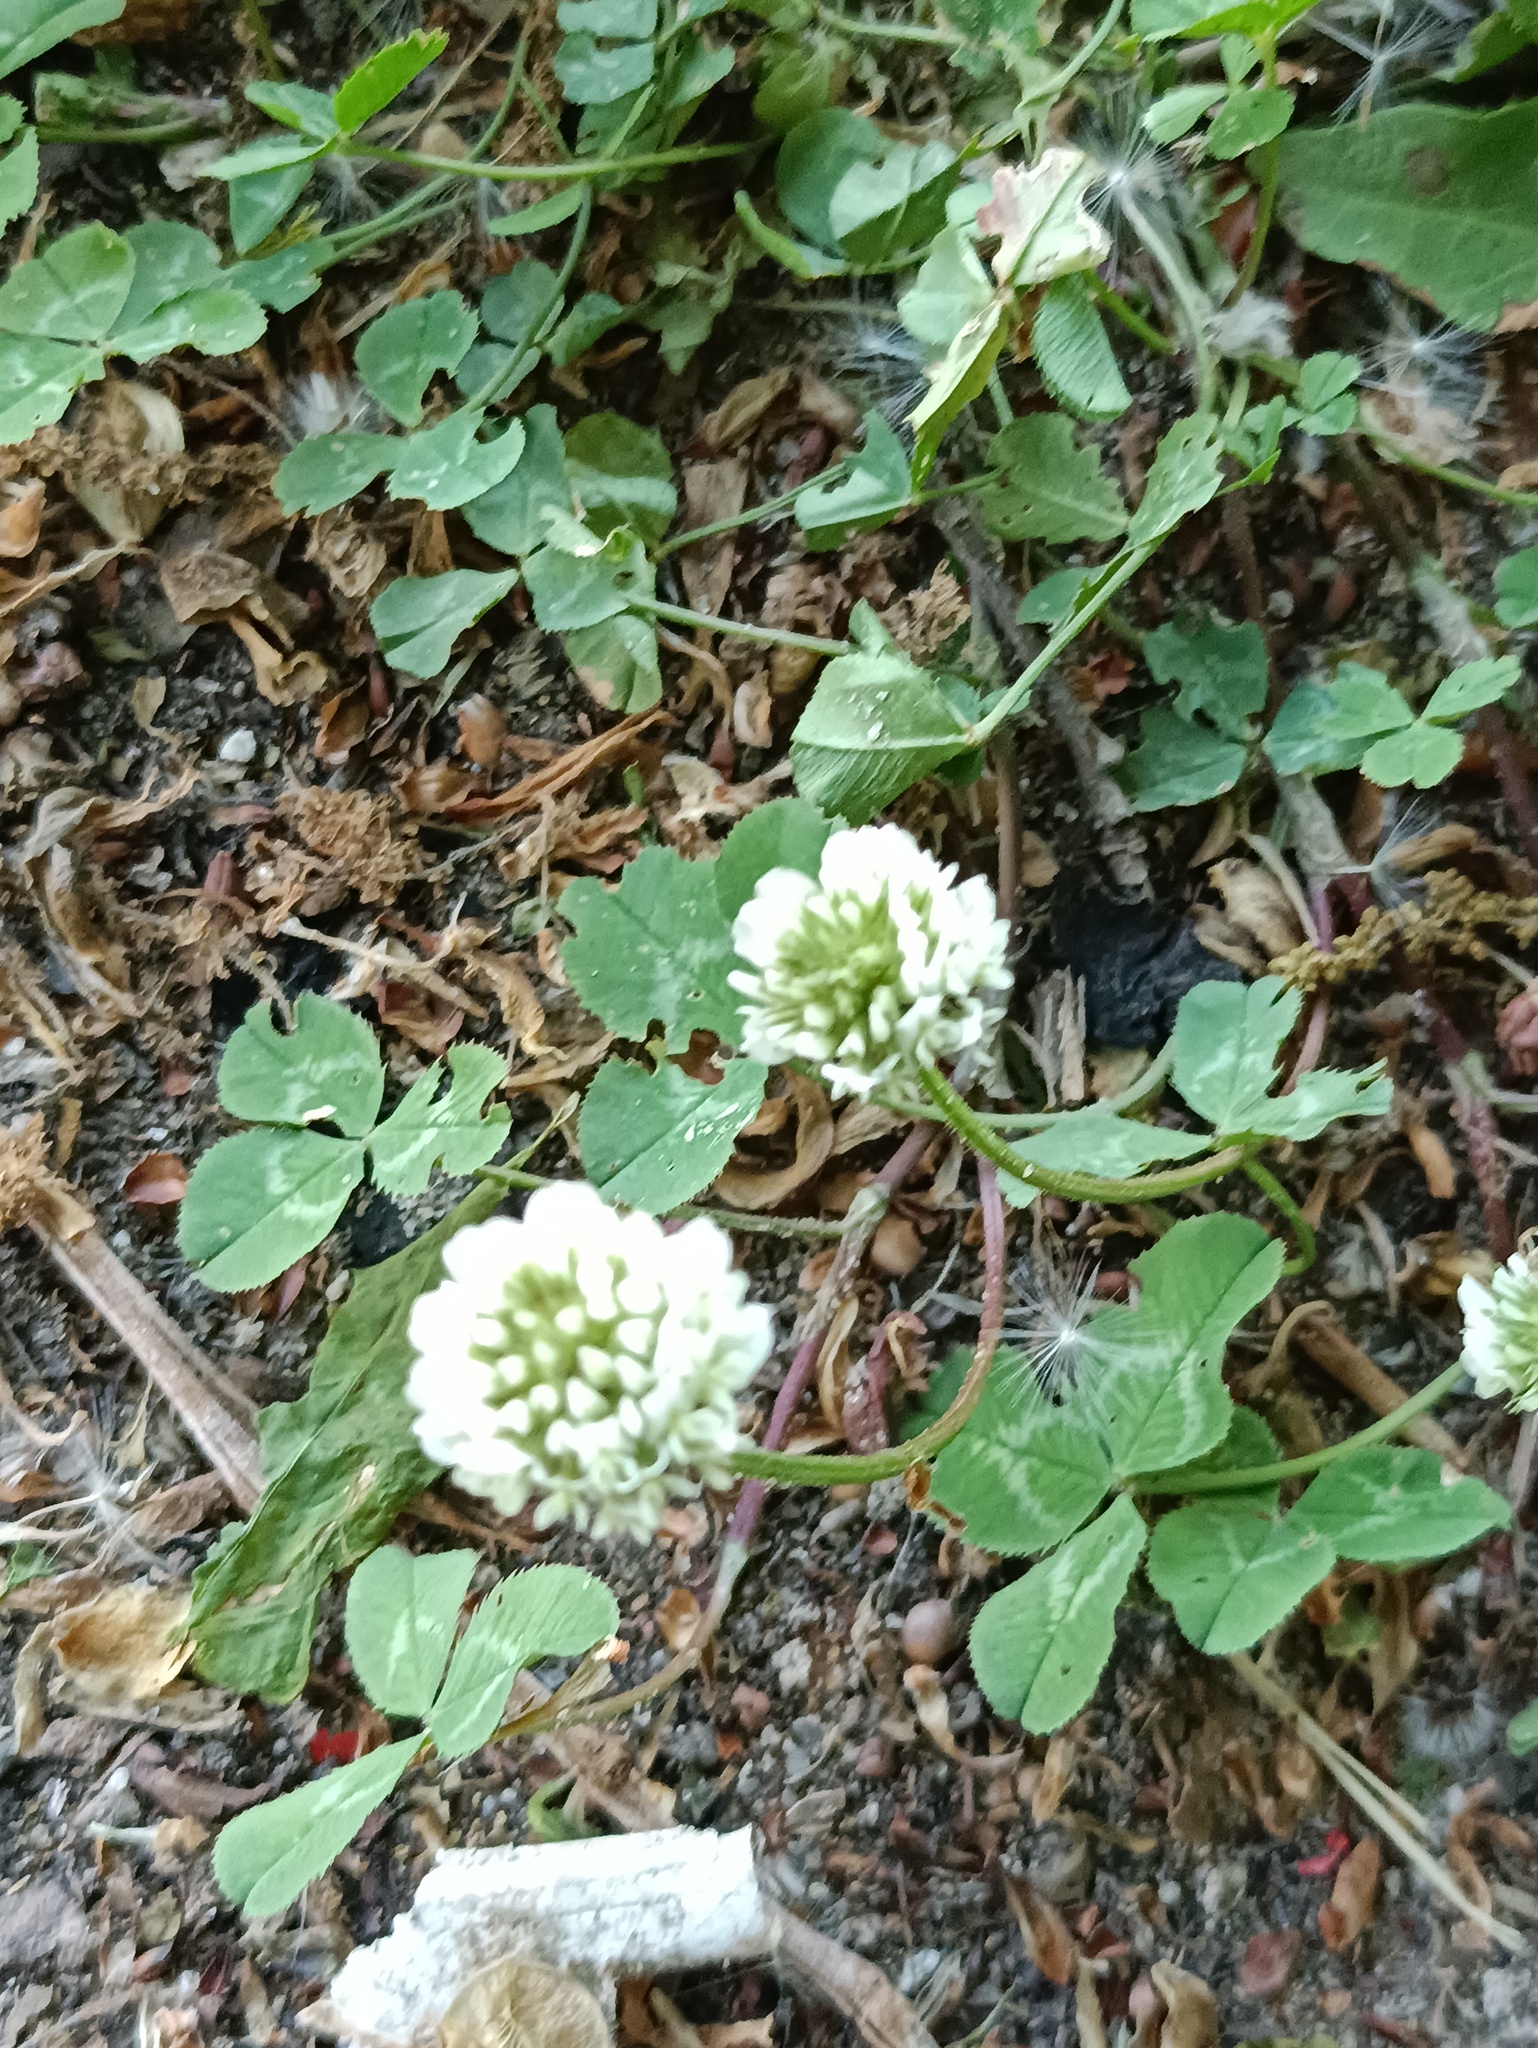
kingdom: Plantae
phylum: Tracheophyta
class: Magnoliopsida
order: Fabales
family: Fabaceae
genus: Trifolium
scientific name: Trifolium repens
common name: White clover
